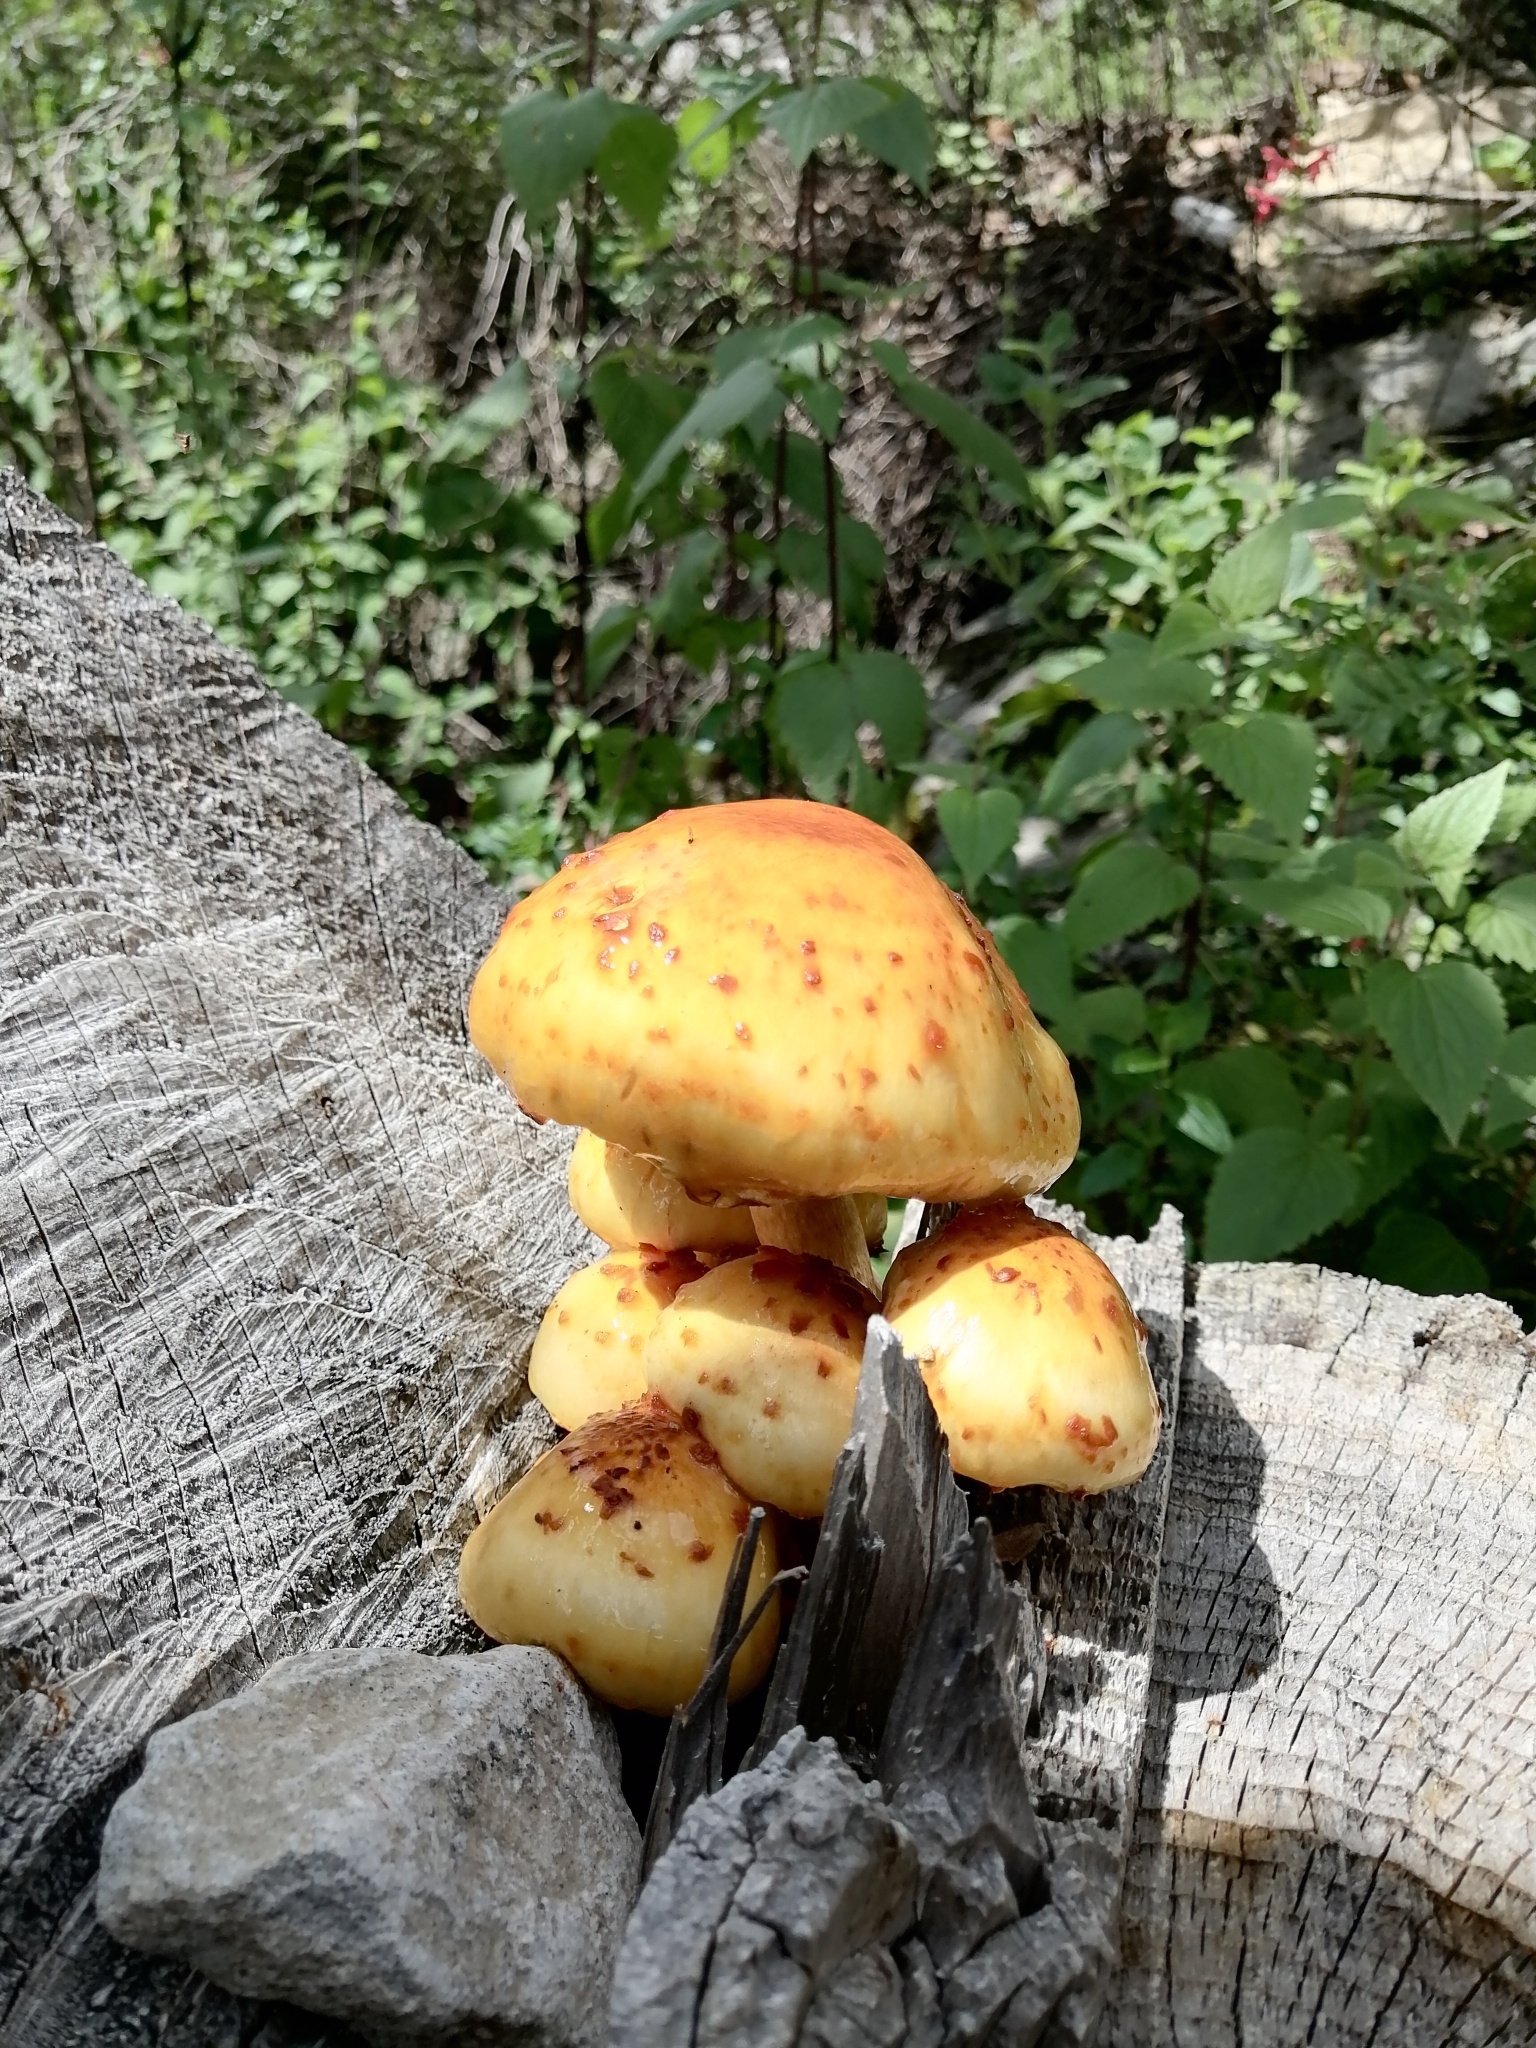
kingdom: Fungi
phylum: Basidiomycota
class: Agaricomycetes
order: Agaricales
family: Strophariaceae
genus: Pholiota
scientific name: Pholiota aurivella
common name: Golden scalycap
